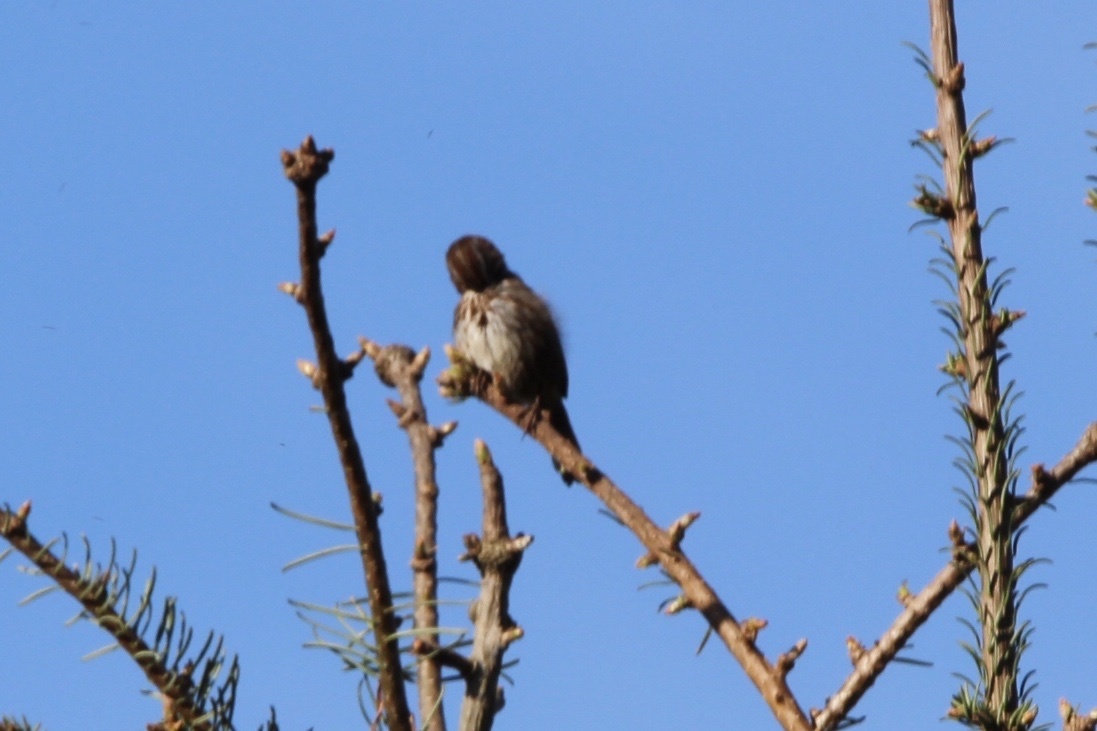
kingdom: Animalia
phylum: Chordata
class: Aves
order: Passeriformes
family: Passerellidae
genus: Melospiza
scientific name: Melospiza melodia
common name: Song sparrow
